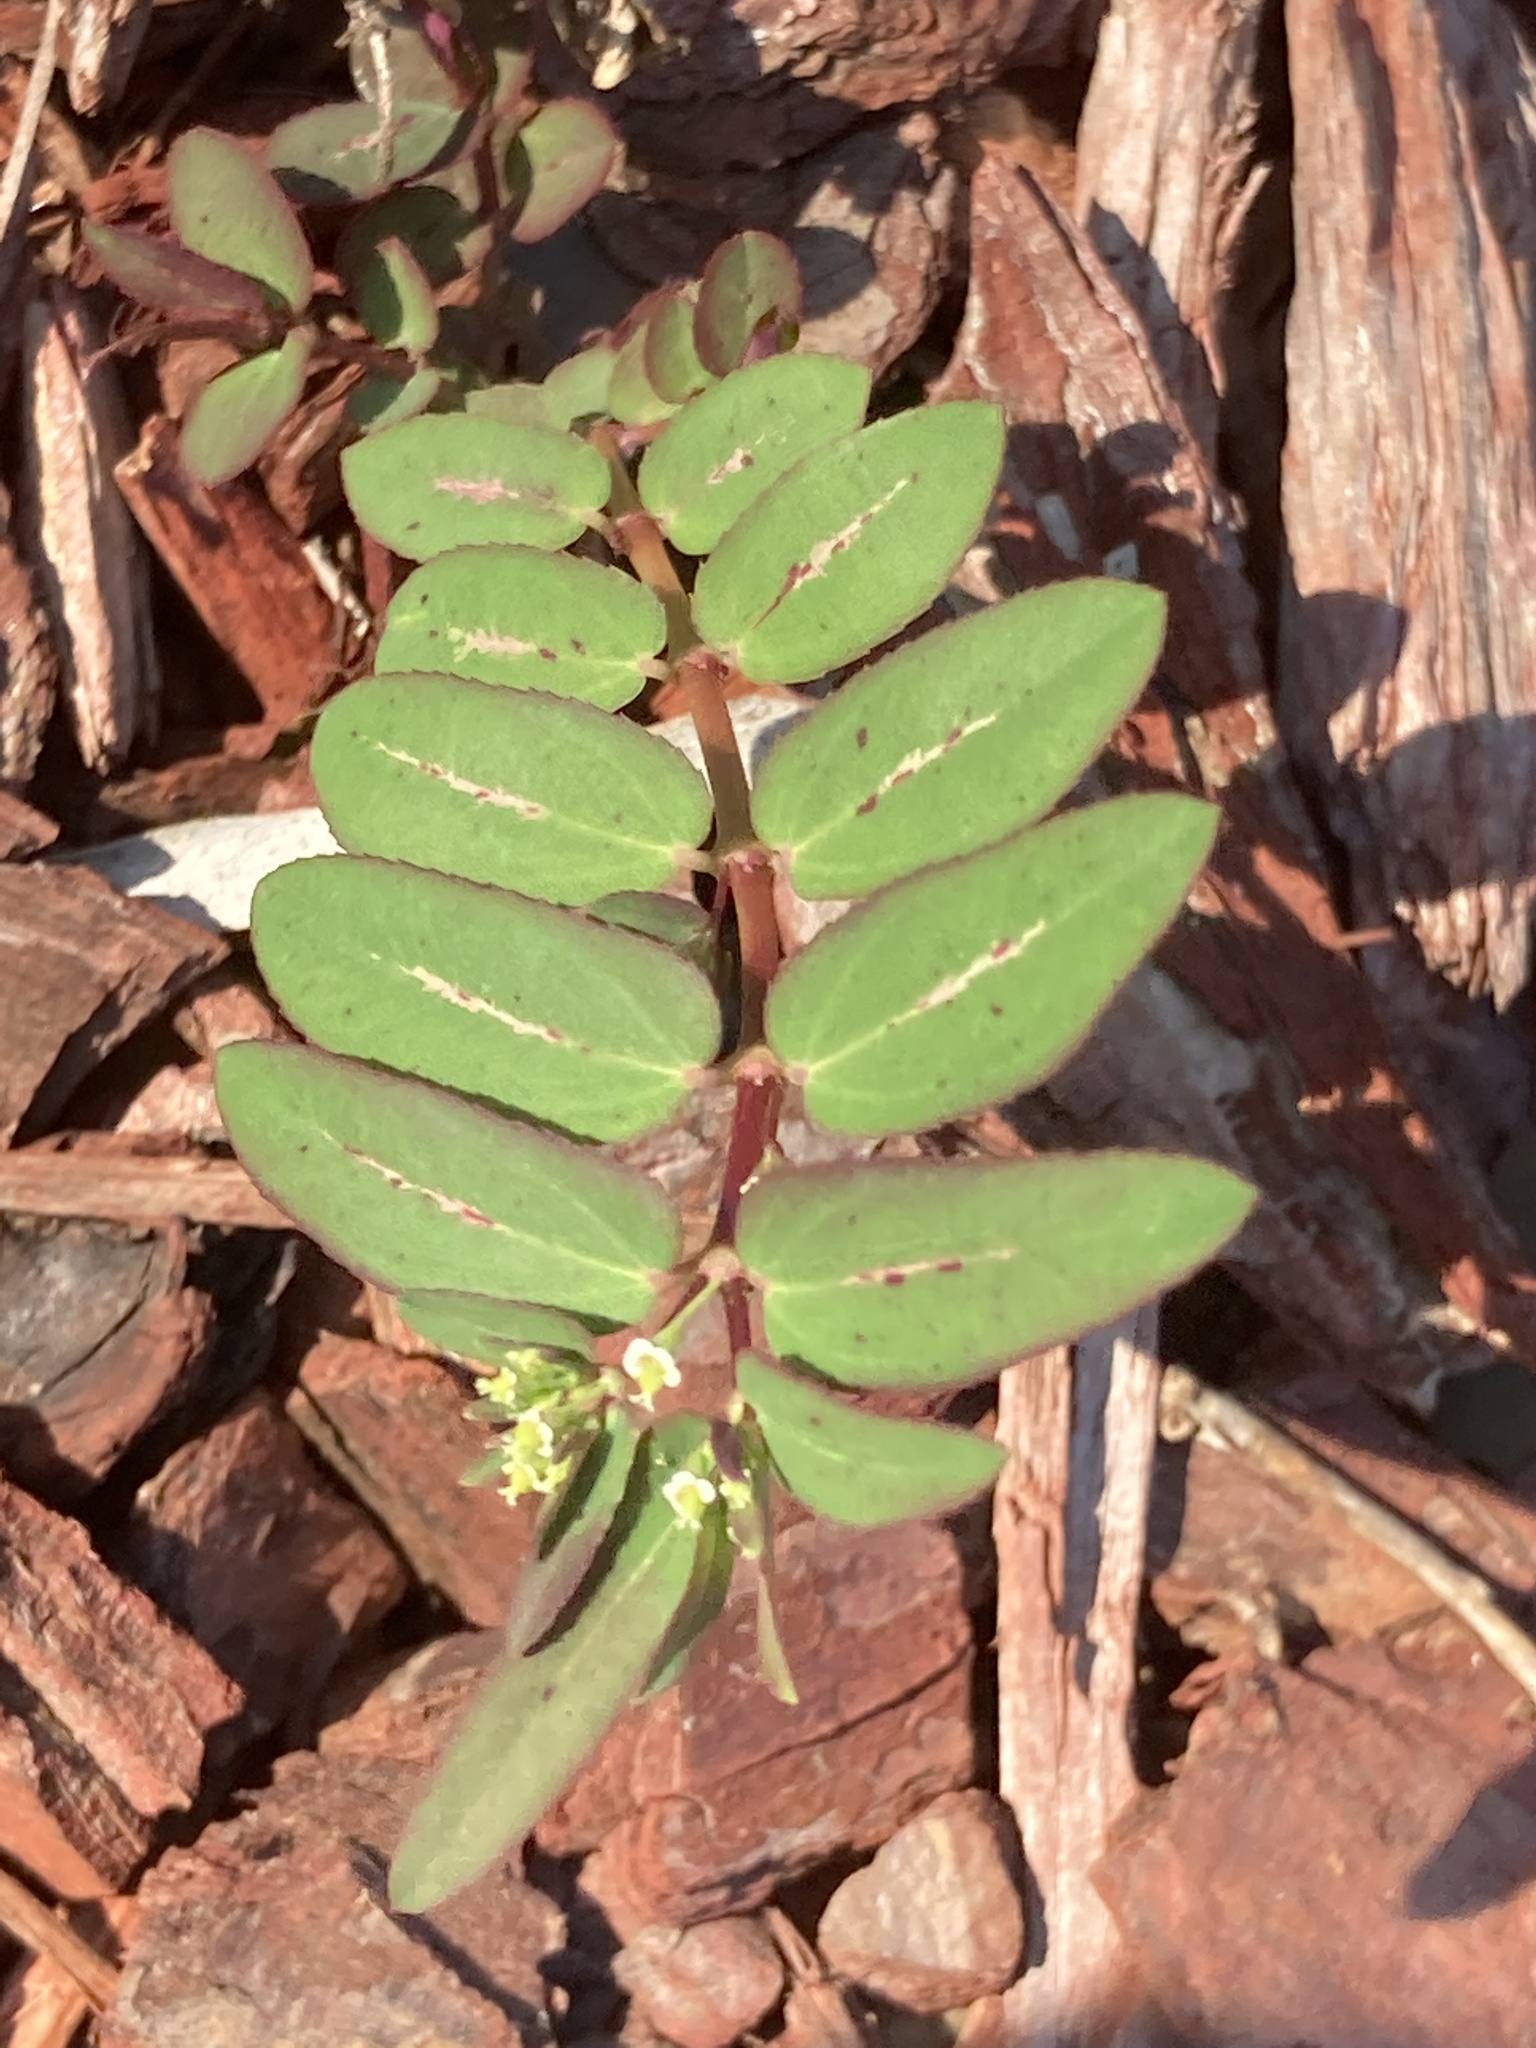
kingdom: Plantae
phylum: Tracheophyta
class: Magnoliopsida
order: Malpighiales
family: Euphorbiaceae
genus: Euphorbia
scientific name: Euphorbia hyssopifolia
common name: Hyssopleaf sandmat
